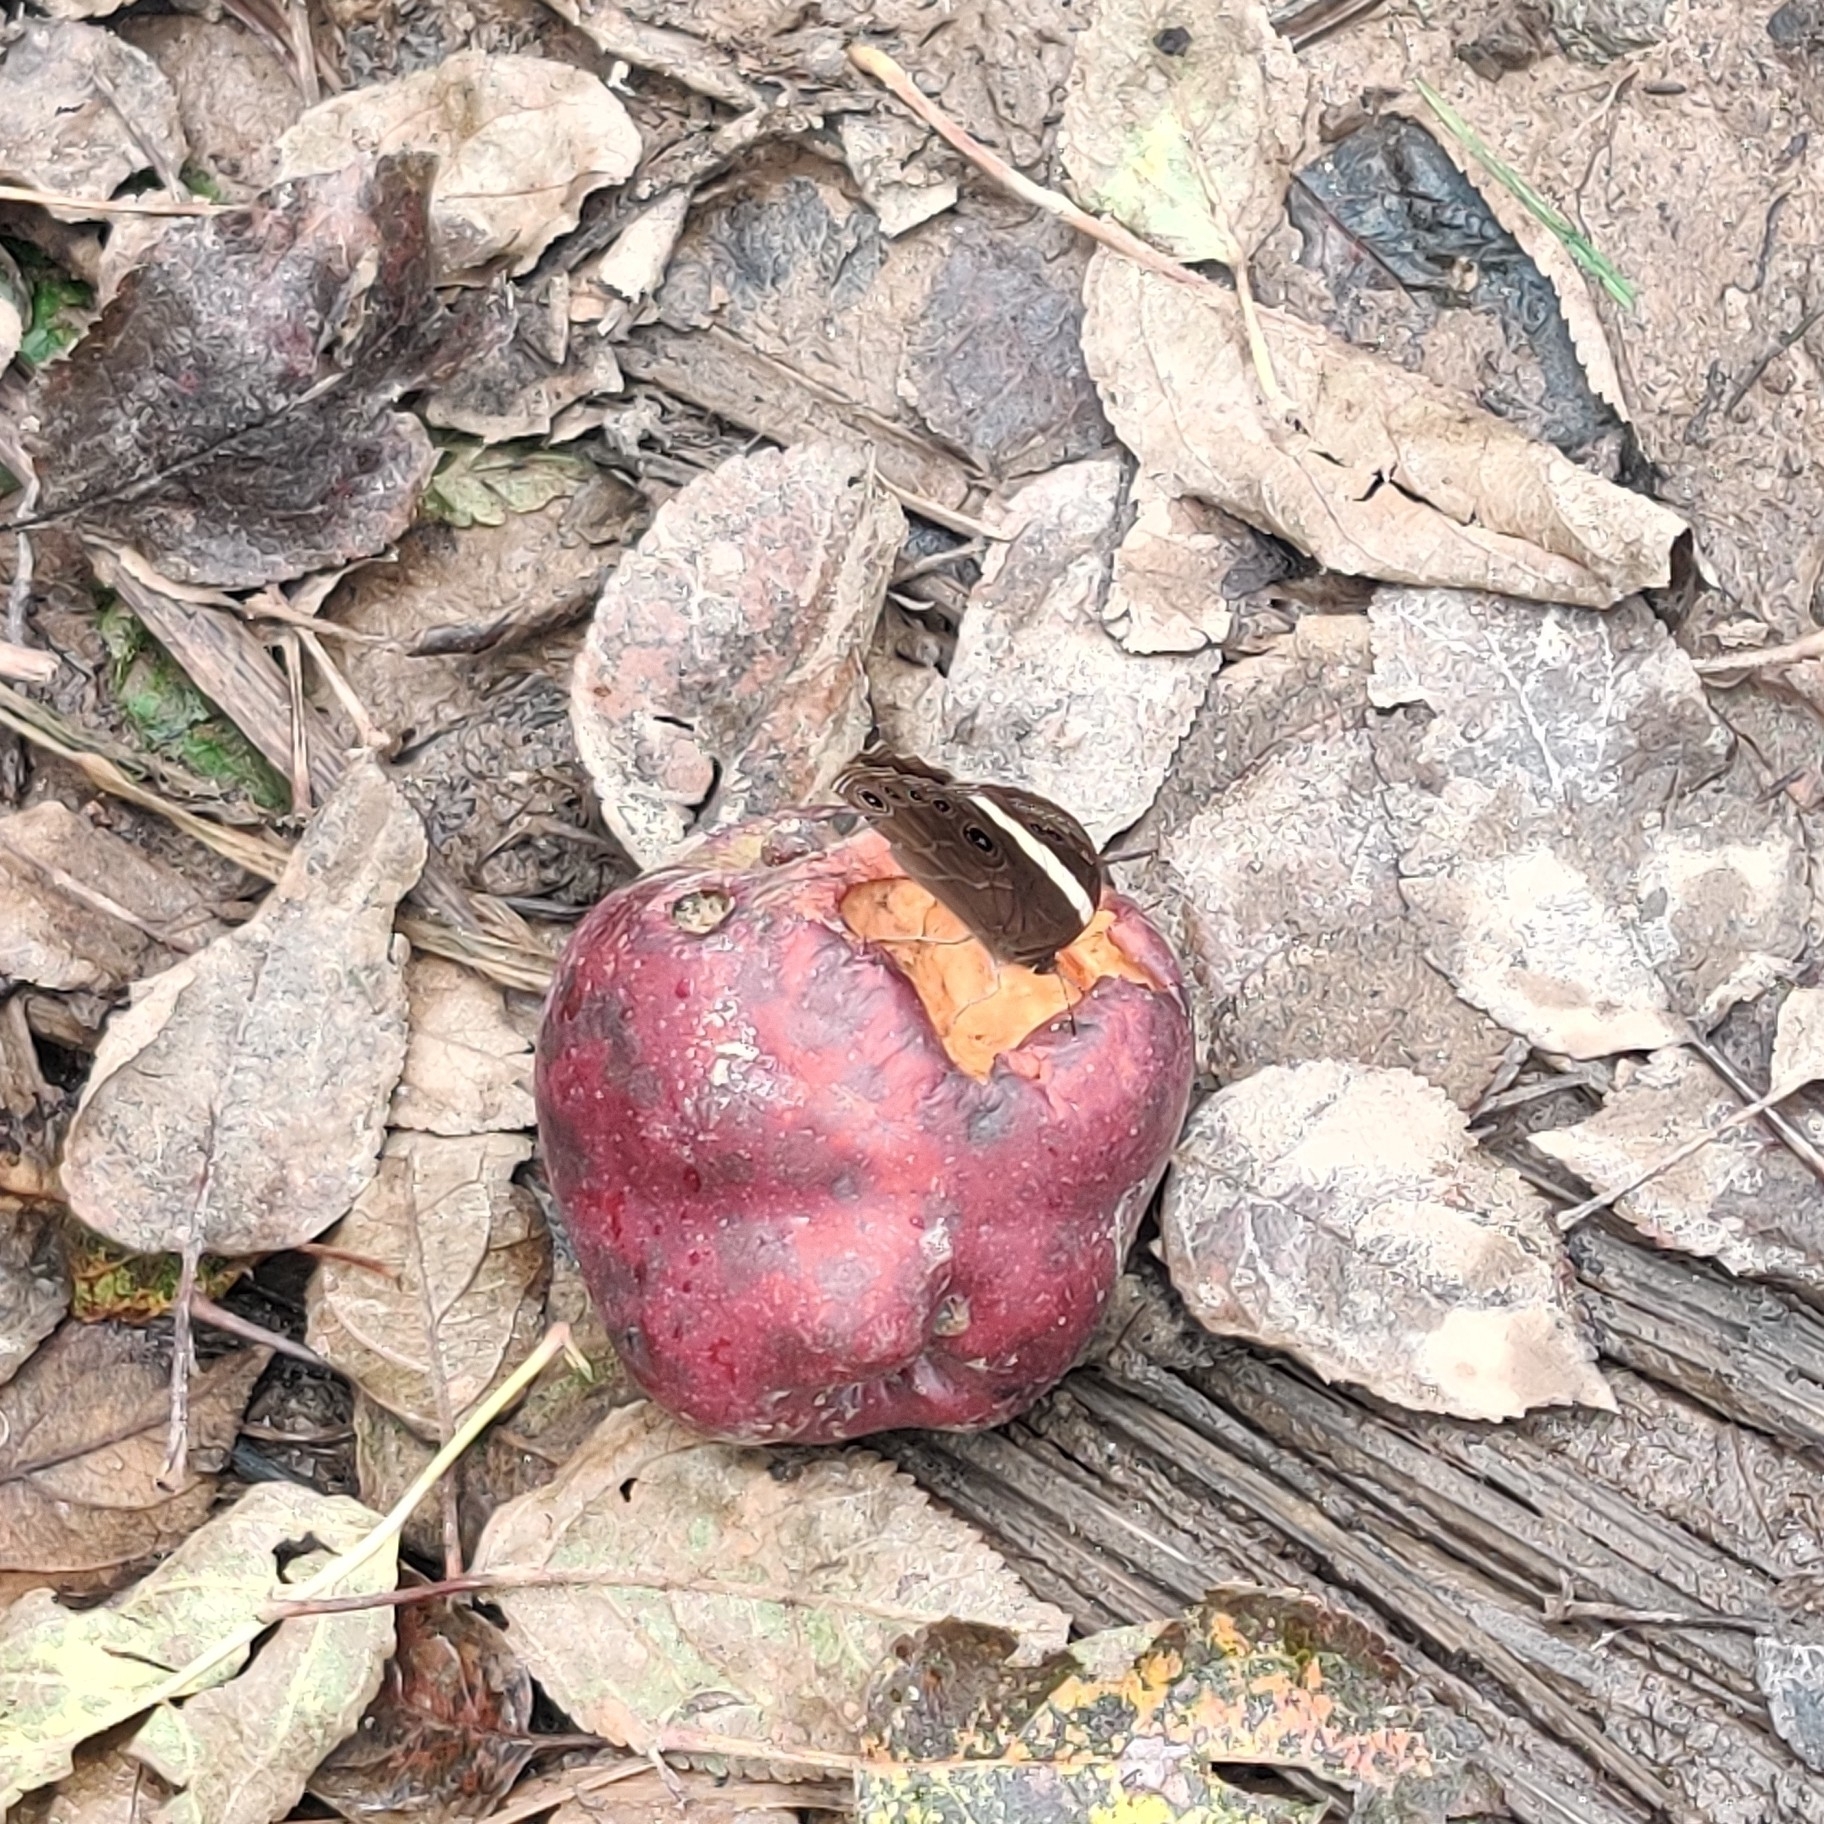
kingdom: Animalia
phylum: Arthropoda
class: Insecta
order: Lepidoptera
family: Nymphalidae
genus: Lethe
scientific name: Lethe verma
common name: Straight-banded treebrown
